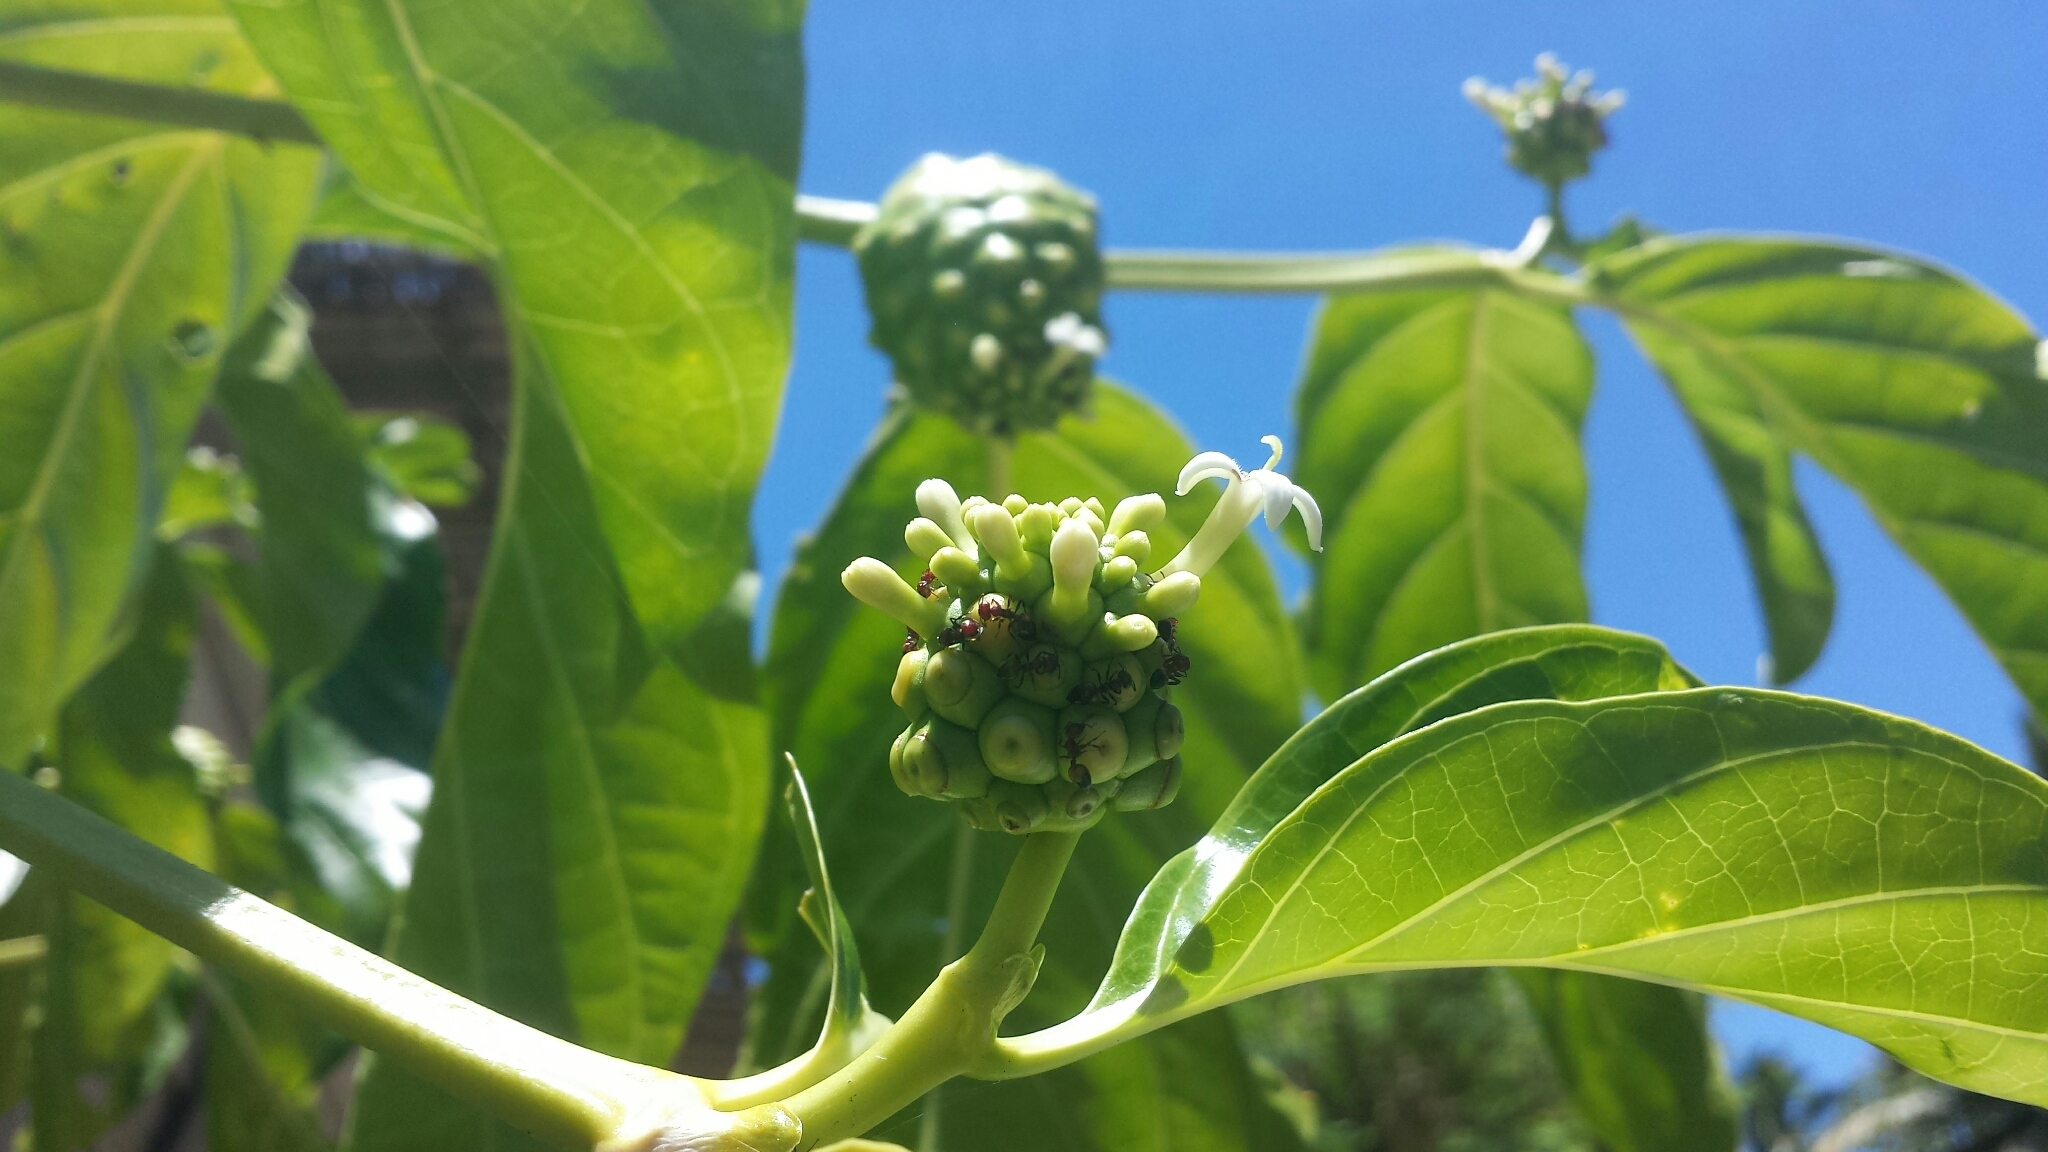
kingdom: Plantae
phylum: Tracheophyta
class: Magnoliopsida
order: Gentianales
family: Rubiaceae
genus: Morinda
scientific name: Morinda citrifolia
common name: Indian-mulberry
